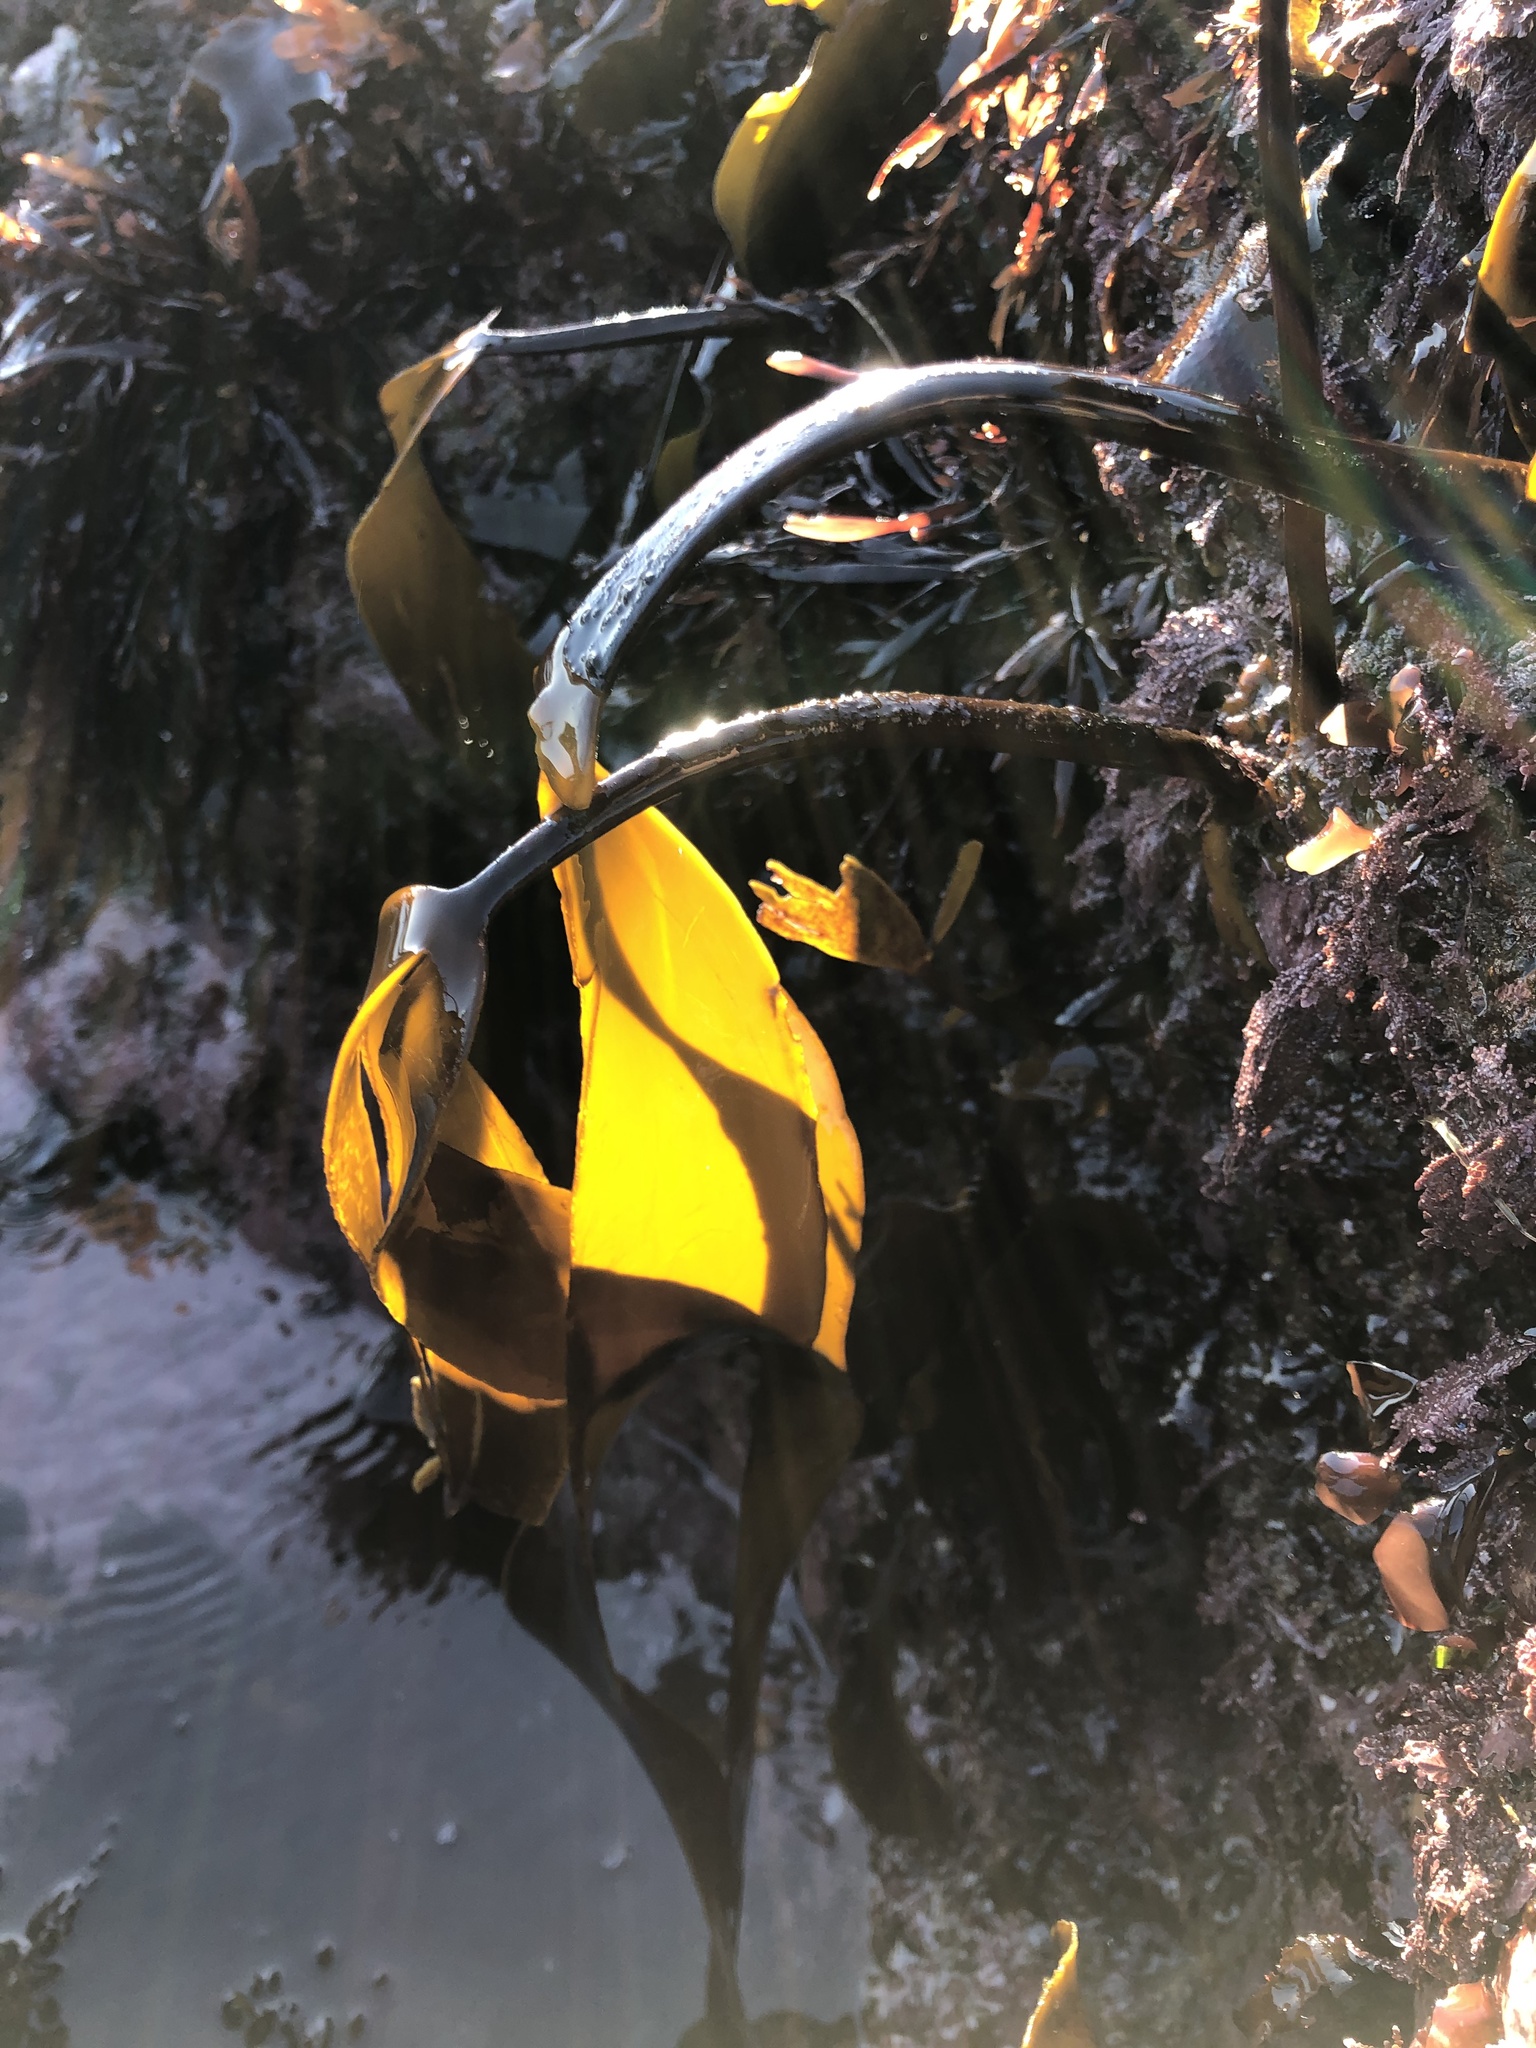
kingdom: Chromista
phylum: Ochrophyta
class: Phaeophyceae
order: Laminariales
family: Laminariaceae
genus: Laminaria
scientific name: Laminaria setchellii
